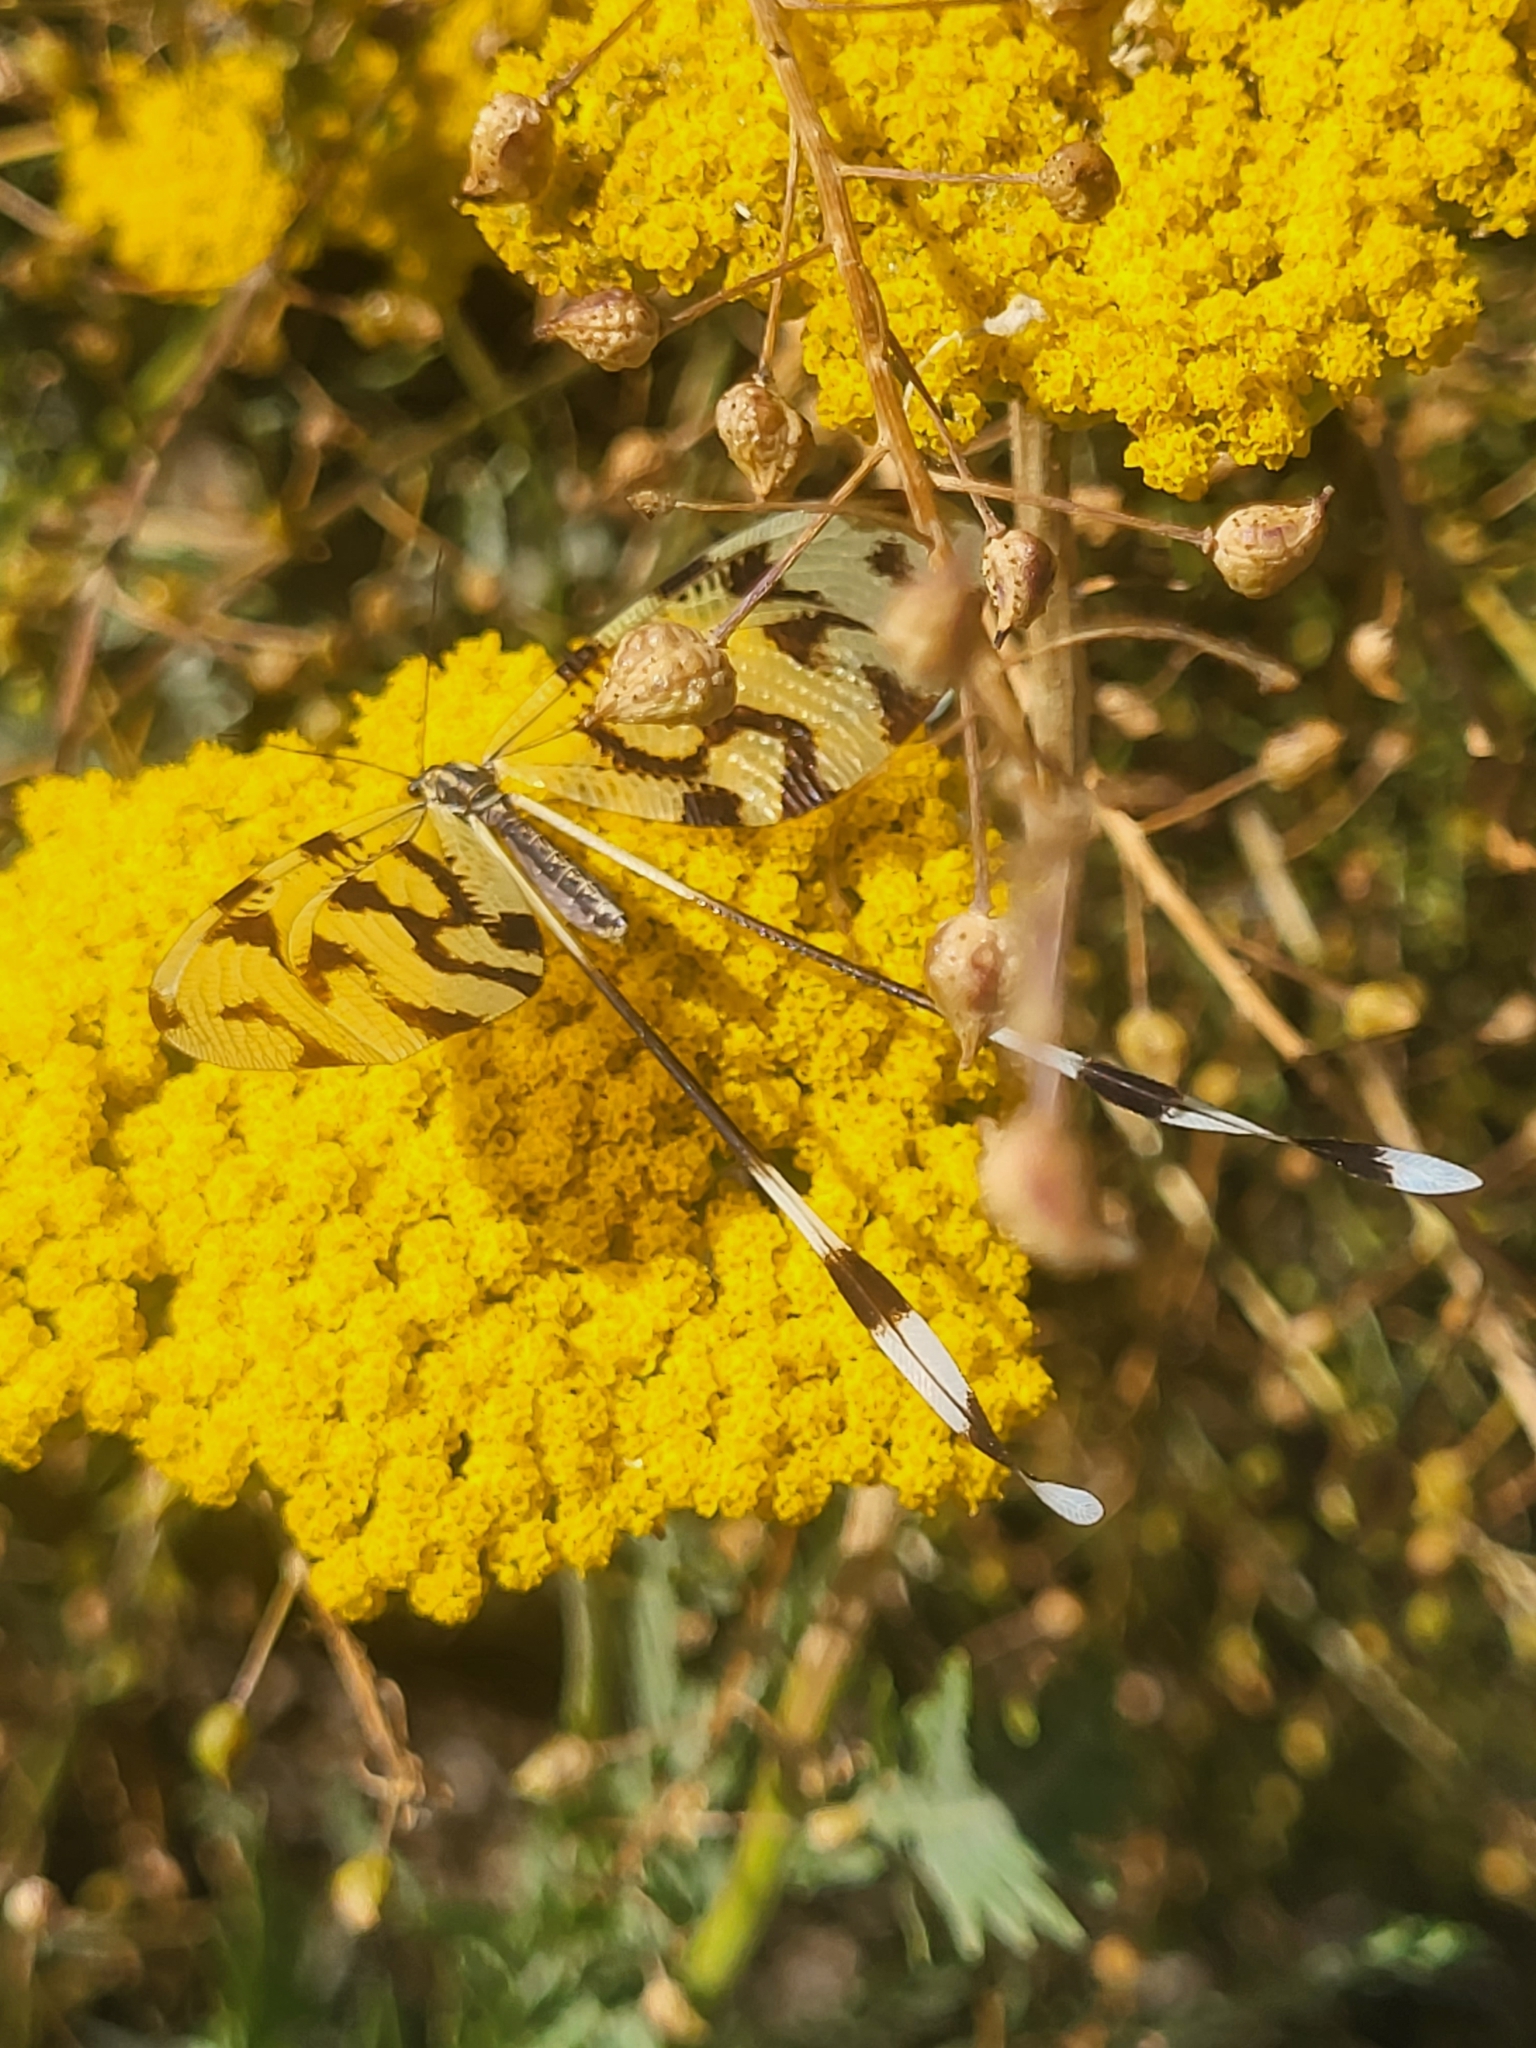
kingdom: Animalia
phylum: Arthropoda
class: Insecta
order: Neuroptera
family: Nemopteridae
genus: Nemoptera
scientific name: Nemoptera sinuata
